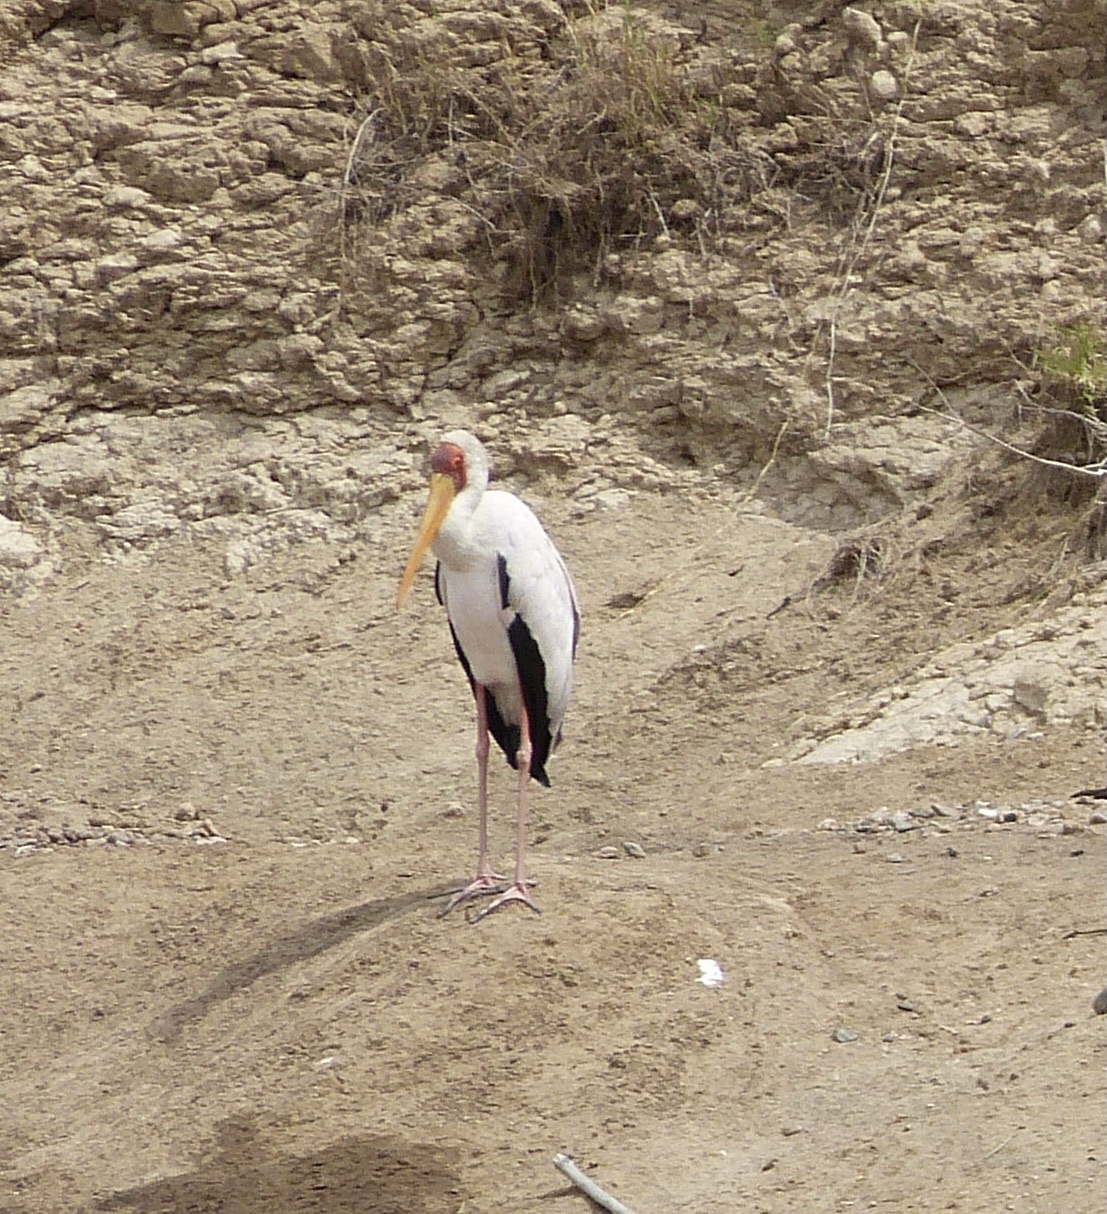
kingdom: Animalia
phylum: Chordata
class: Aves
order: Ciconiiformes
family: Ciconiidae
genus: Mycteria
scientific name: Mycteria ibis
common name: Yellow-billed stork
